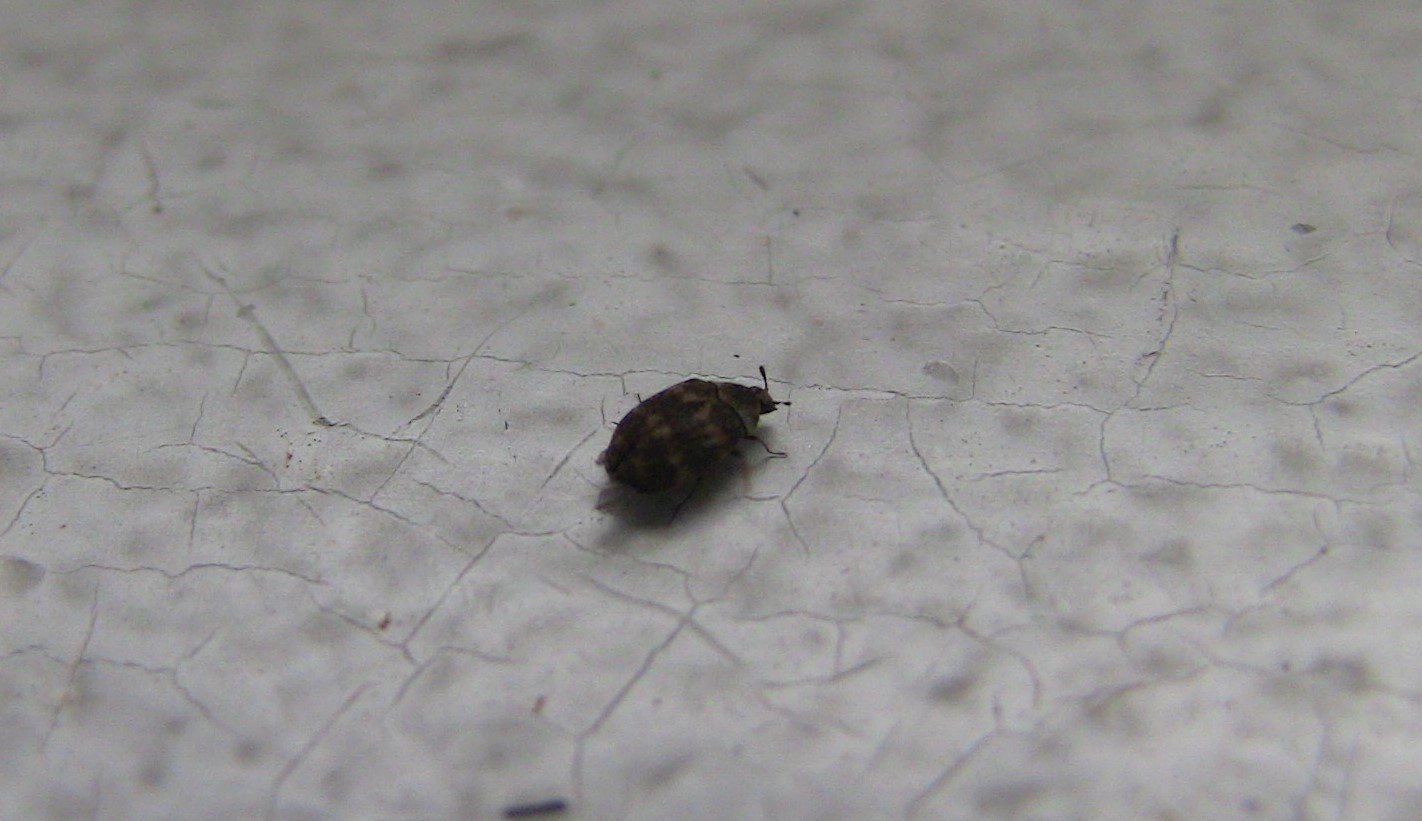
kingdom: Animalia
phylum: Arthropoda
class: Insecta
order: Coleoptera
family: Dermestidae
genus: Anthrenus
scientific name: Anthrenus fuscus
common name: Mill carpet beetle
